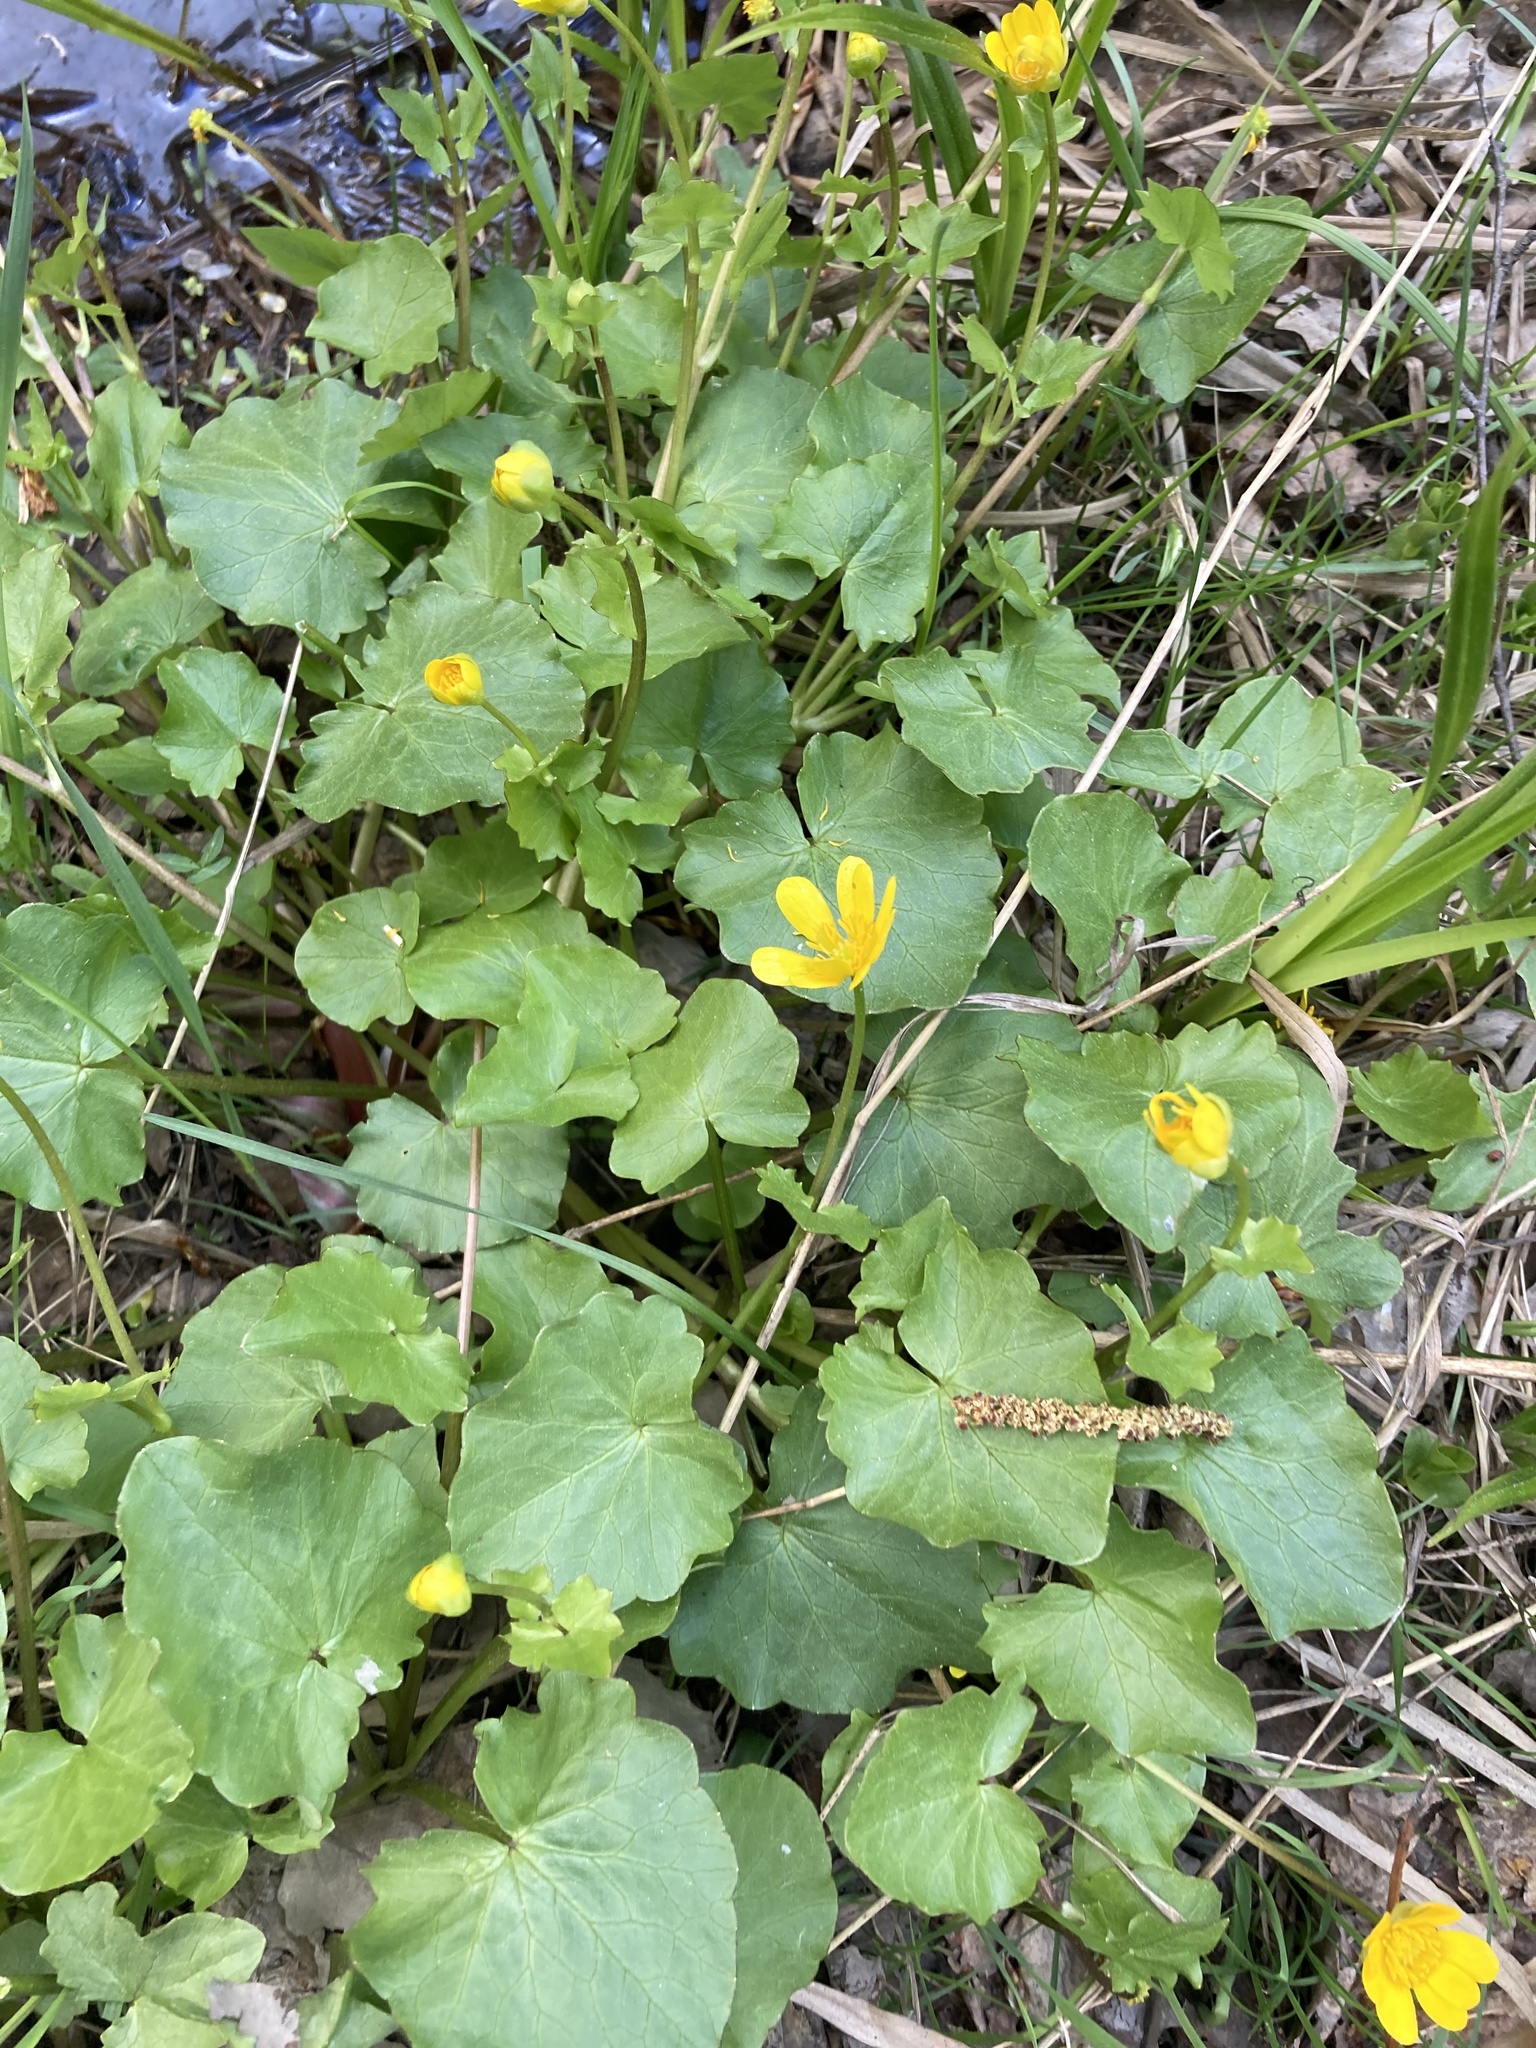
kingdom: Plantae
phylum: Tracheophyta
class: Magnoliopsida
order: Ranunculales
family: Ranunculaceae
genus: Ficaria
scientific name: Ficaria verna
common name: Lesser celandine
